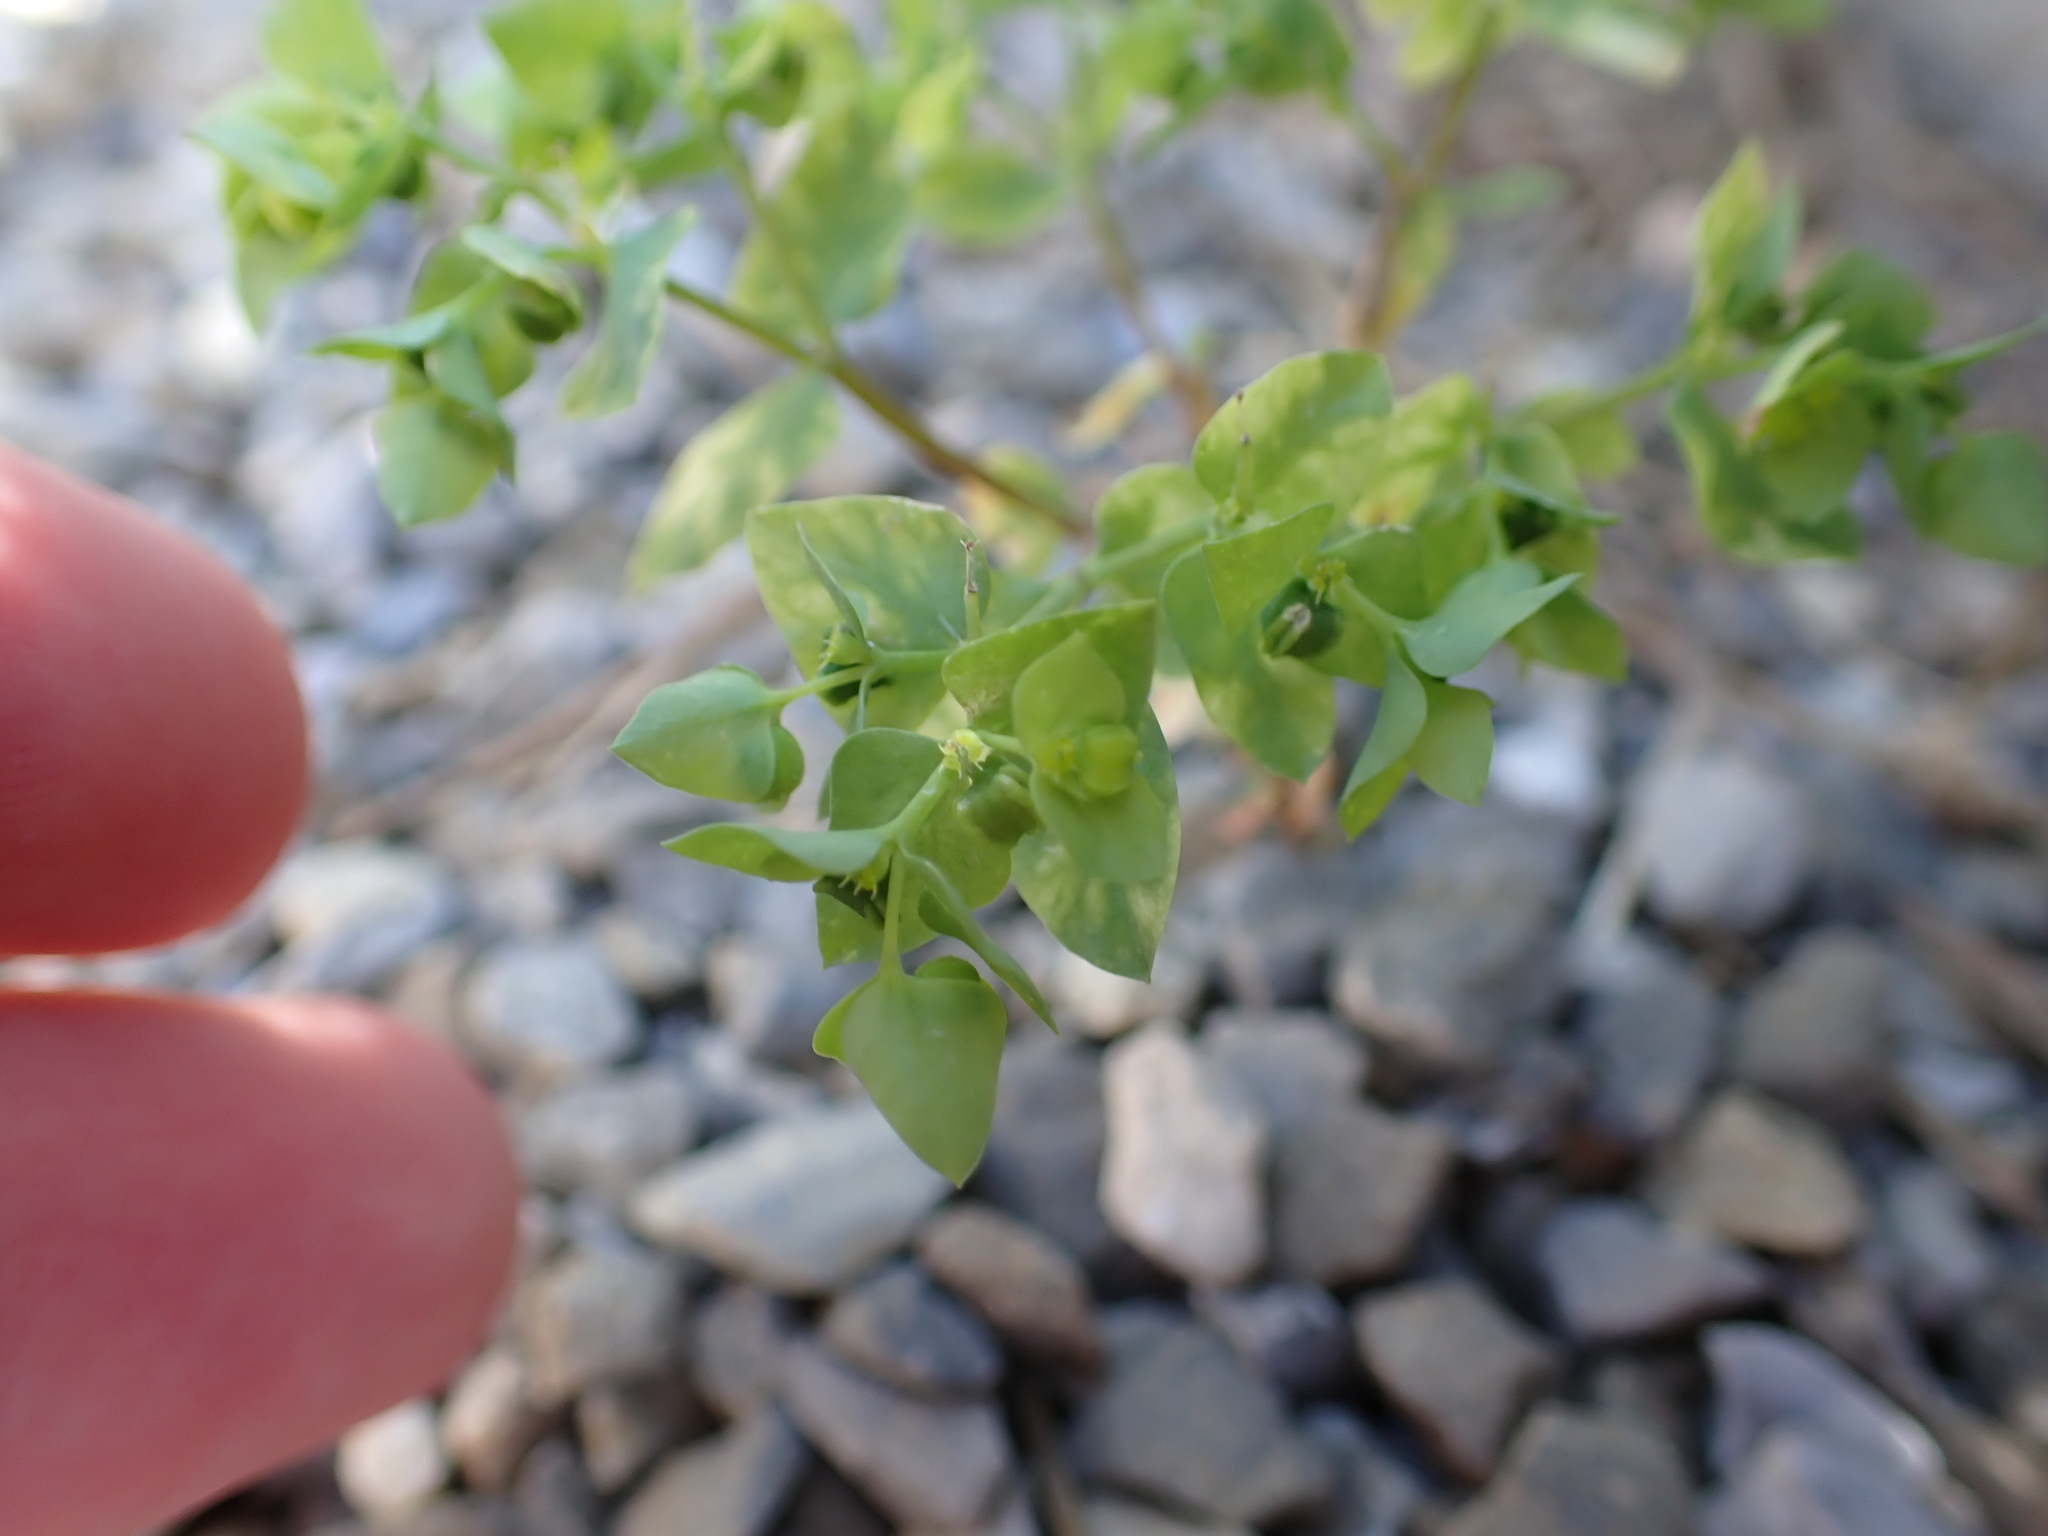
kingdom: Plantae
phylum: Tracheophyta
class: Magnoliopsida
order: Malpighiales
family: Euphorbiaceae
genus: Euphorbia
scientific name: Euphorbia peplus
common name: Petty spurge
